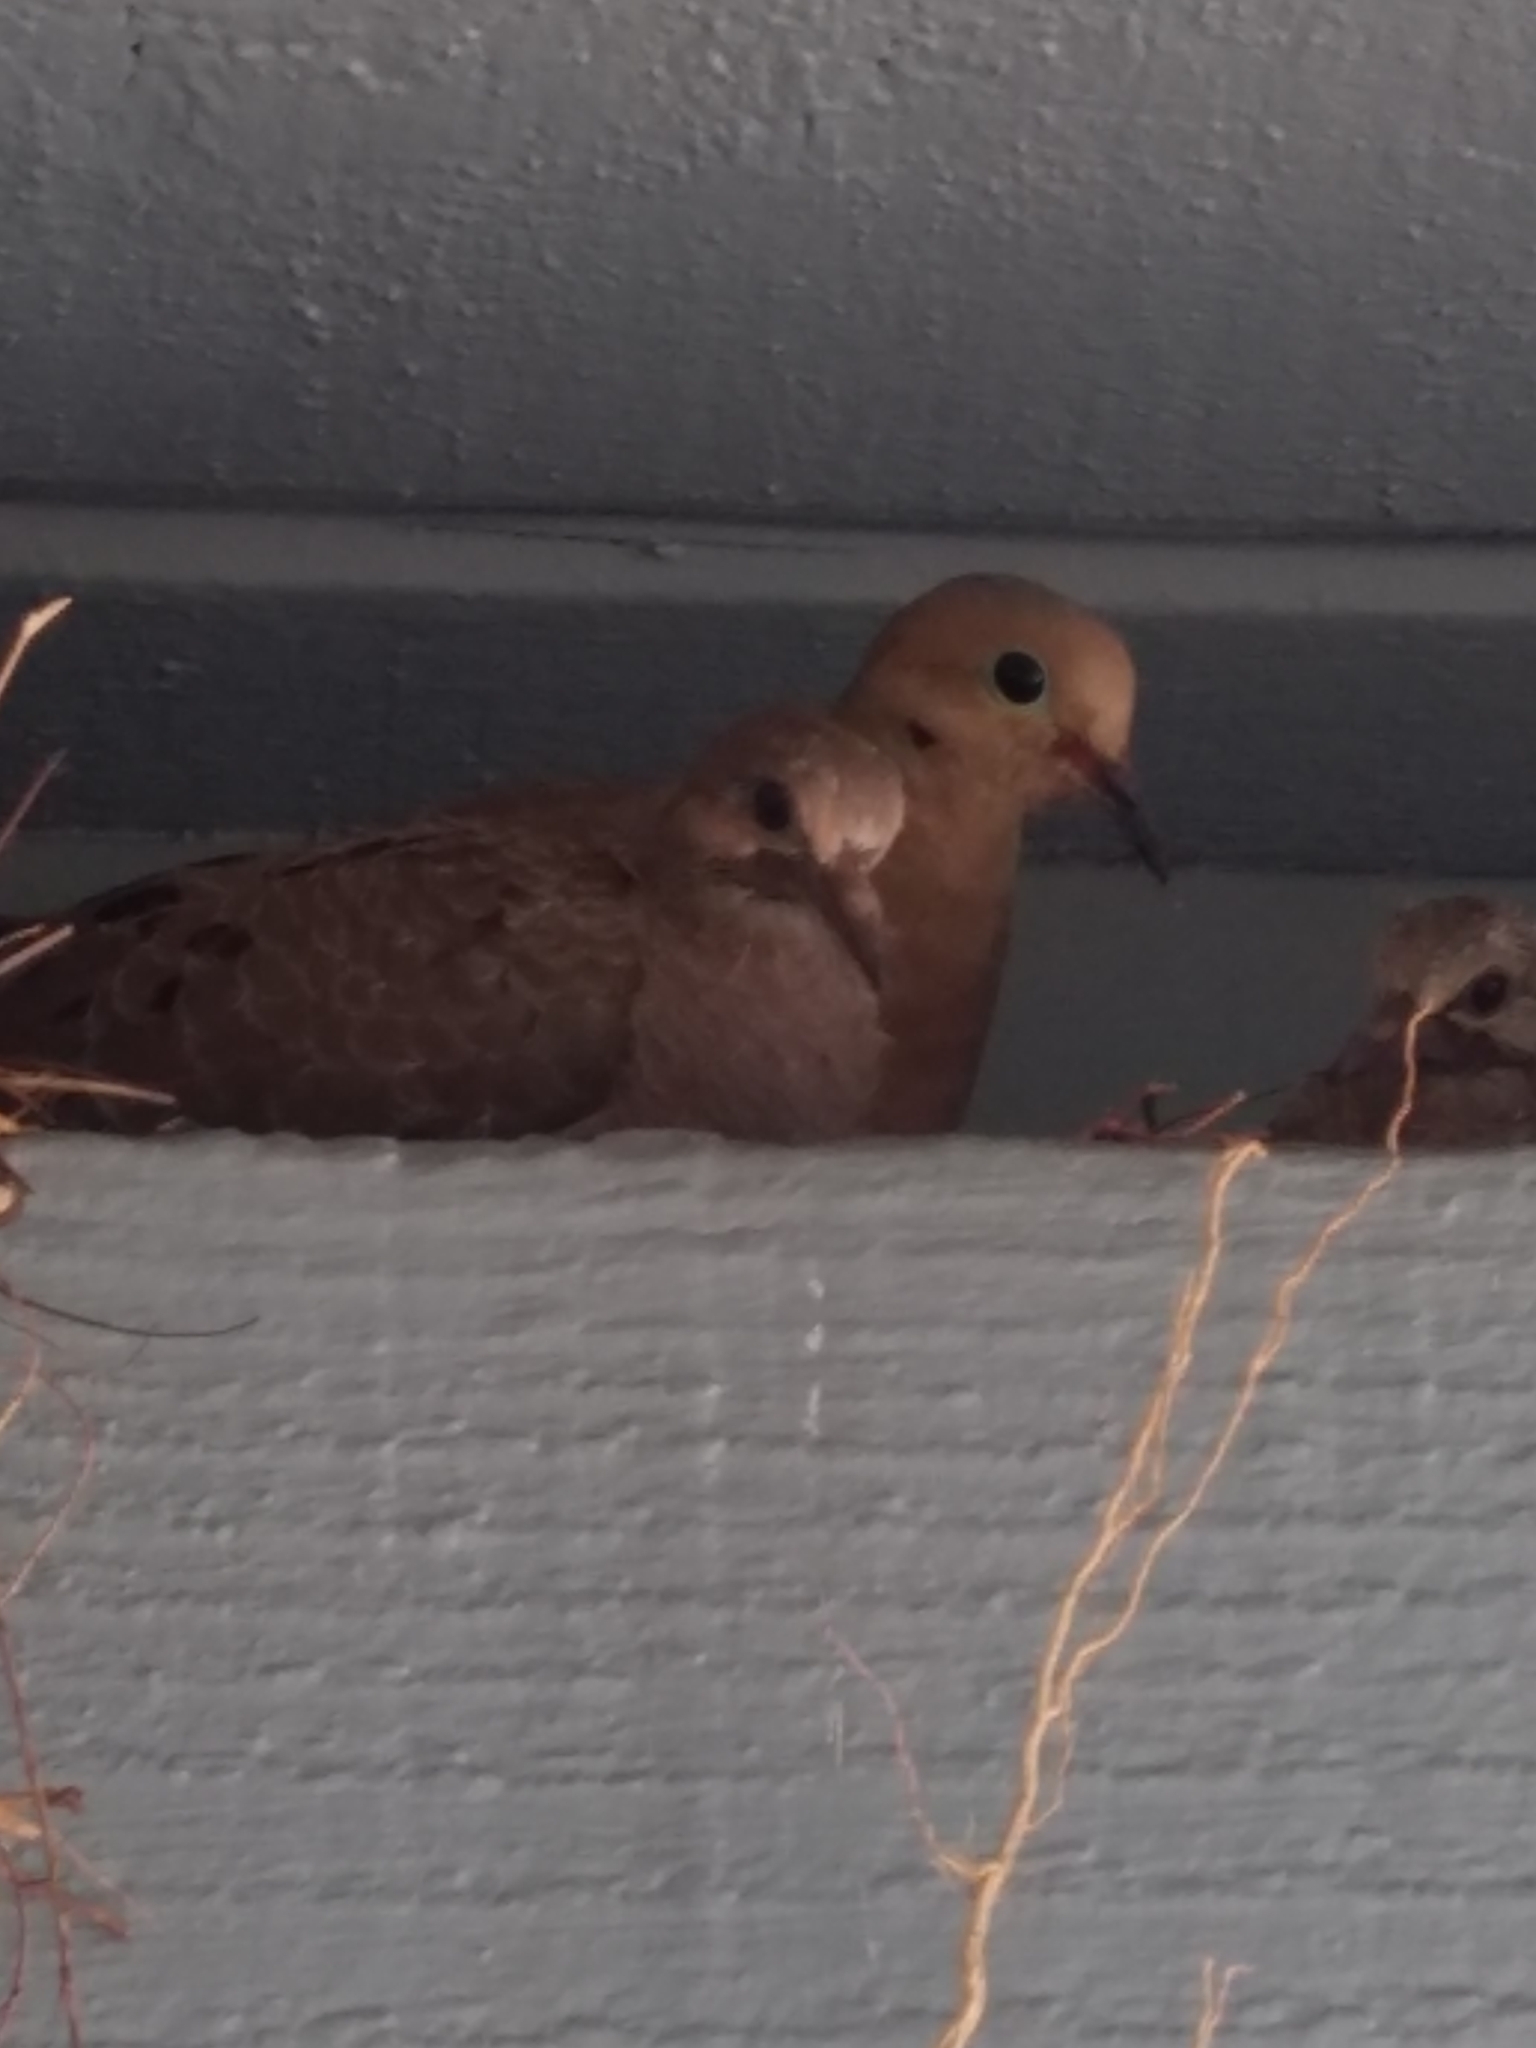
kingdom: Animalia
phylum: Chordata
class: Aves
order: Columbiformes
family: Columbidae
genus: Zenaida
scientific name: Zenaida macroura
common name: Mourning dove
